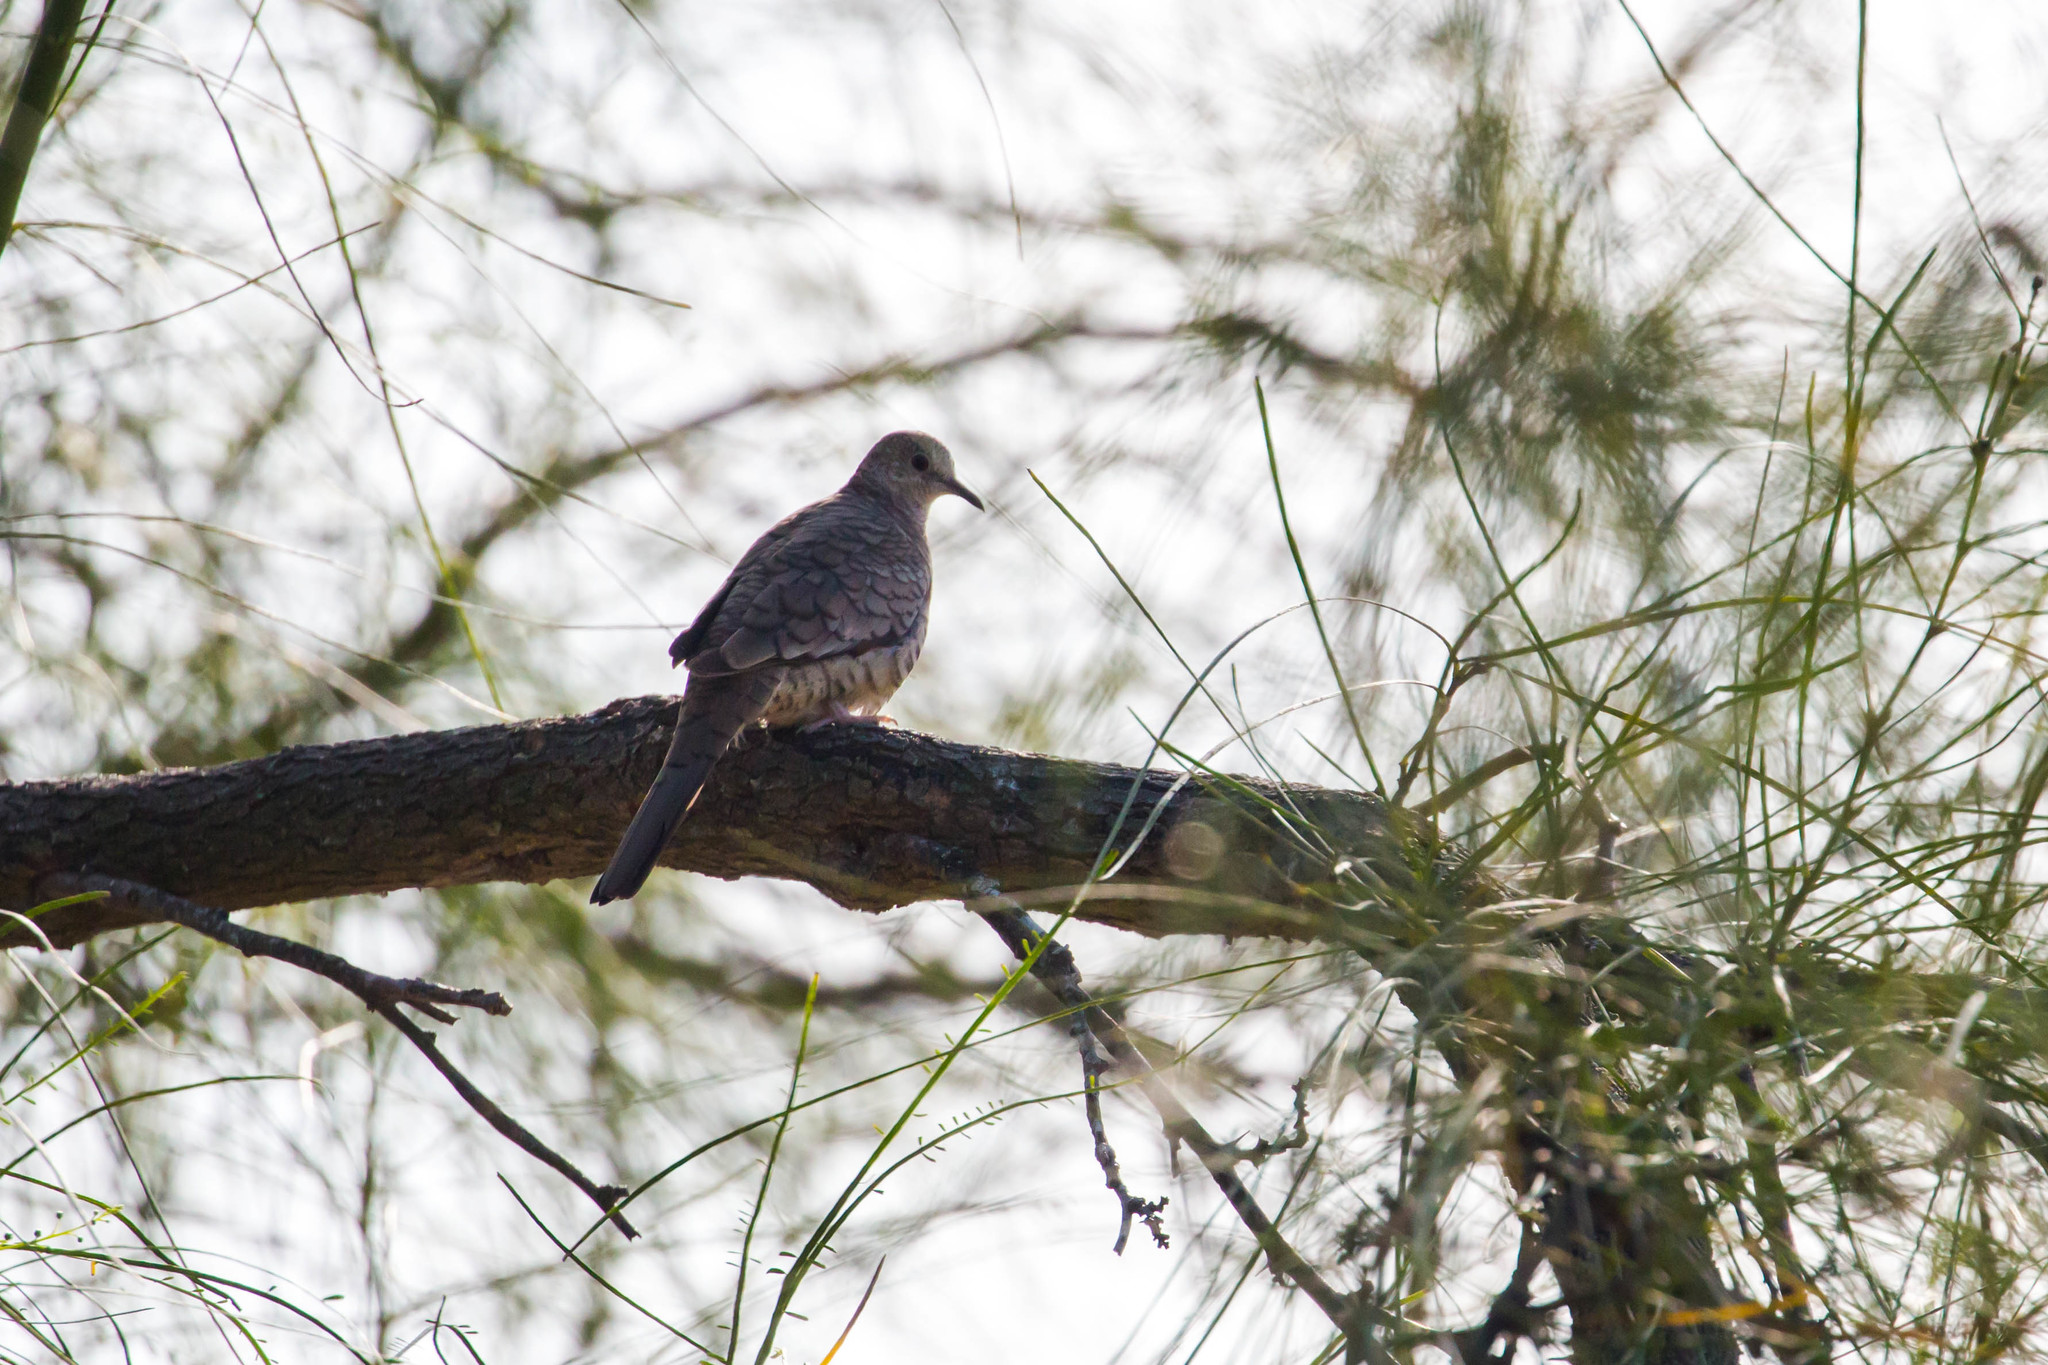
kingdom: Animalia
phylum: Chordata
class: Aves
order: Columbiformes
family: Columbidae
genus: Columbina
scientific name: Columbina inca
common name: Inca dove
